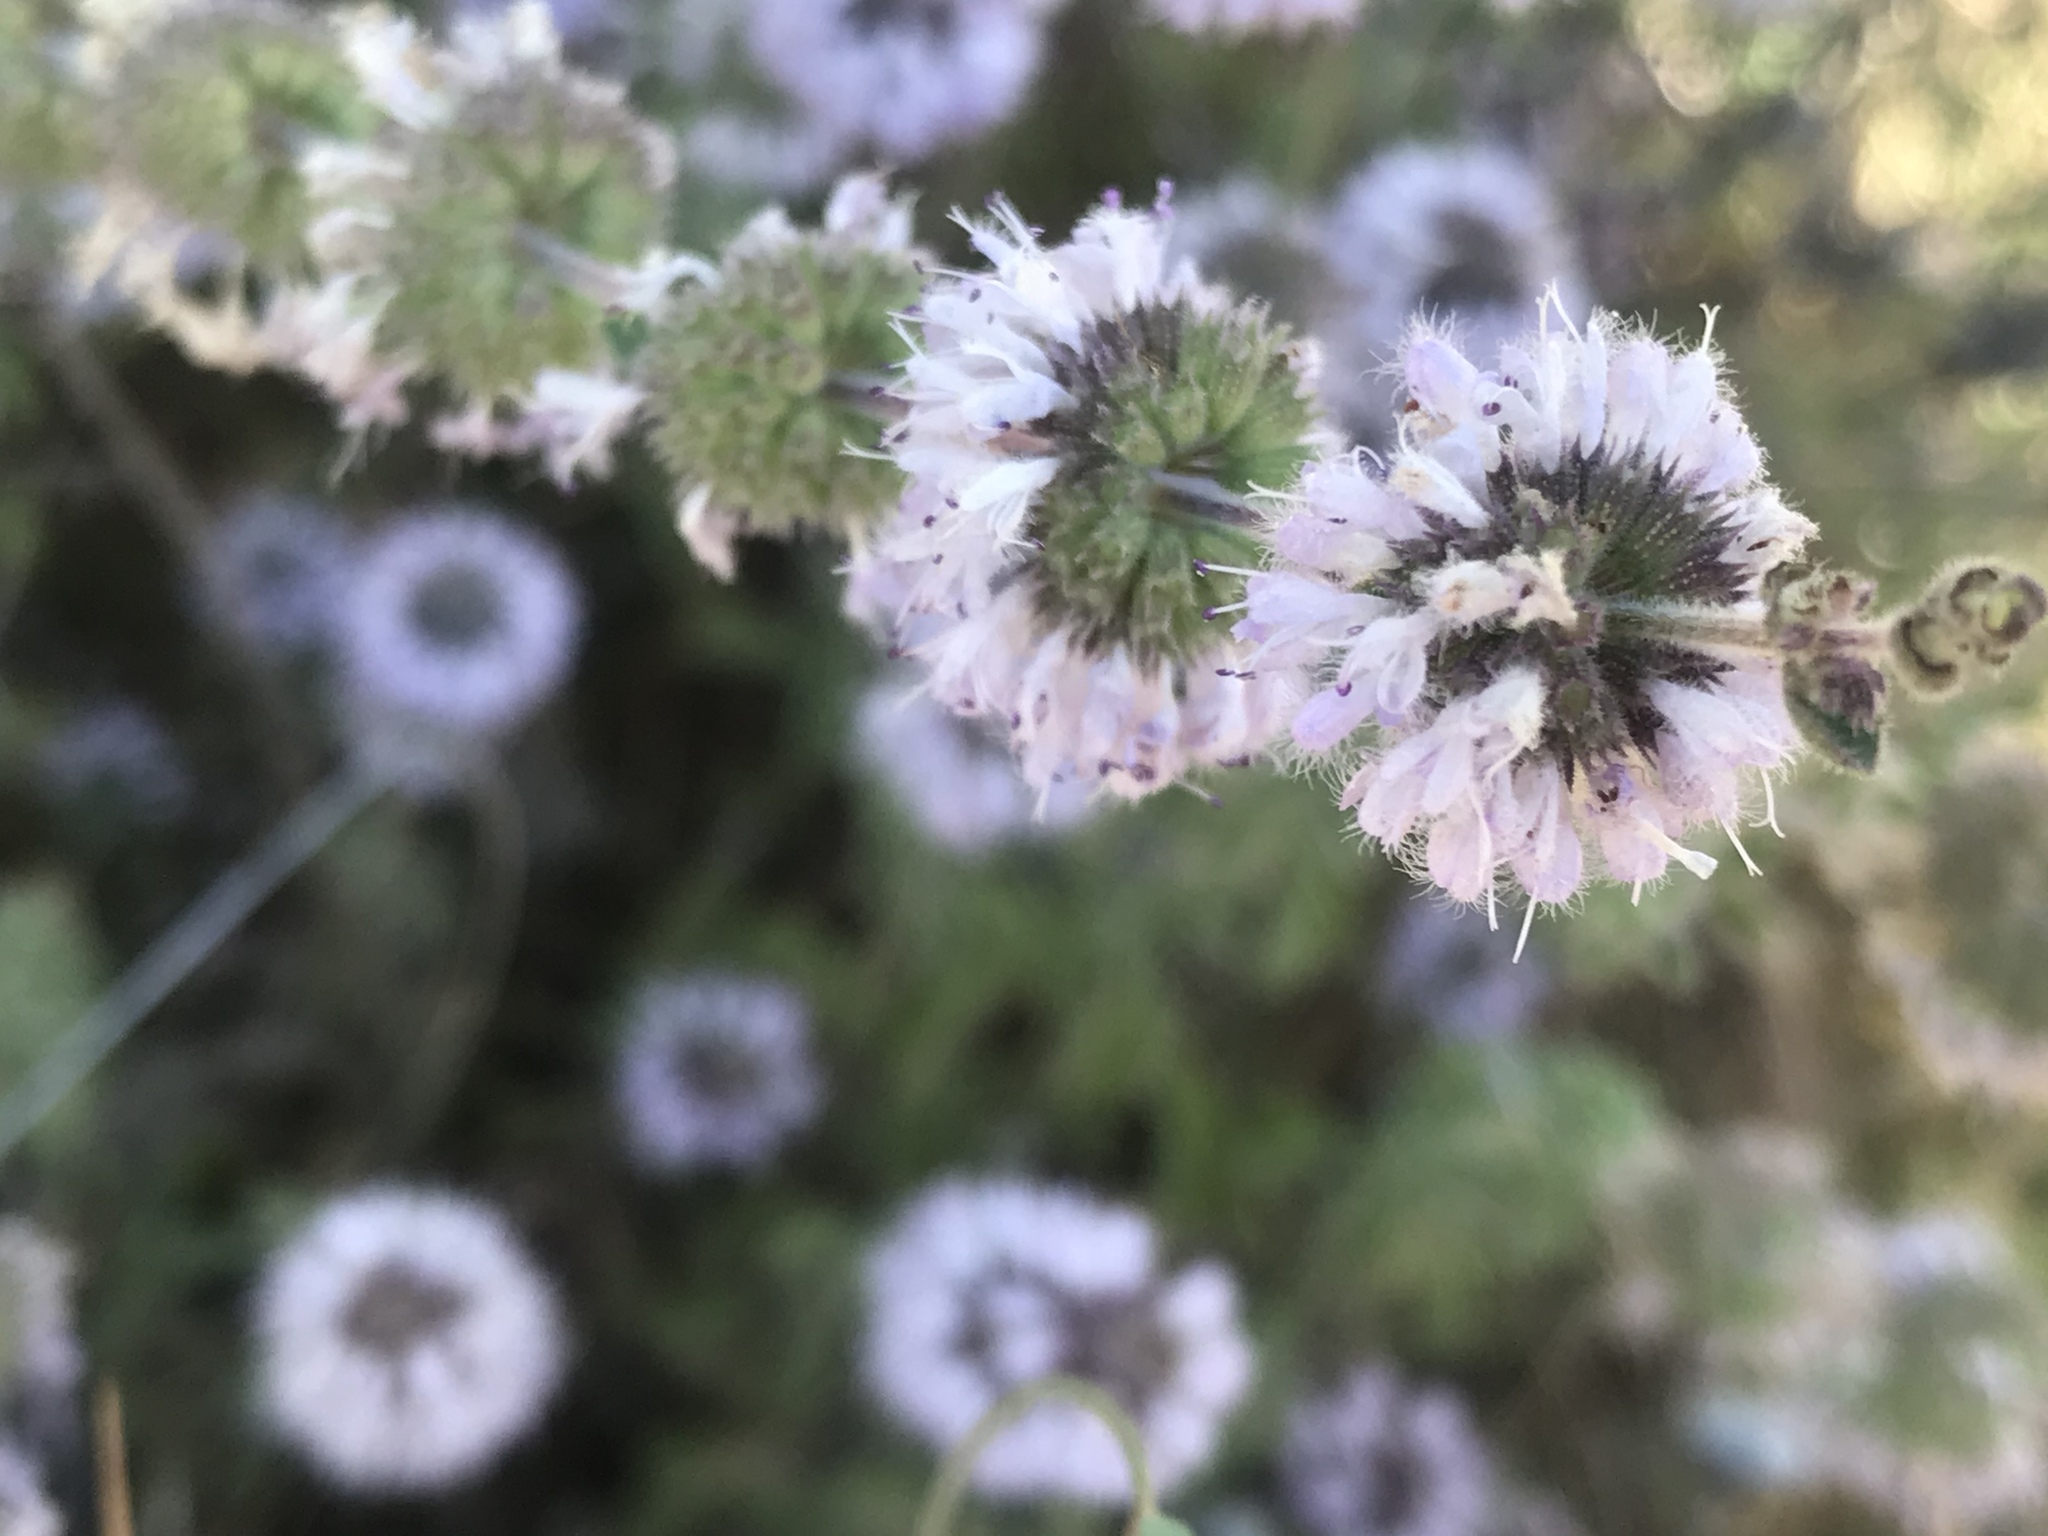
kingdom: Plantae
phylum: Tracheophyta
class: Magnoliopsida
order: Lamiales
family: Lamiaceae
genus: Mentha
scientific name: Mentha pulegium
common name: Pennyroyal
